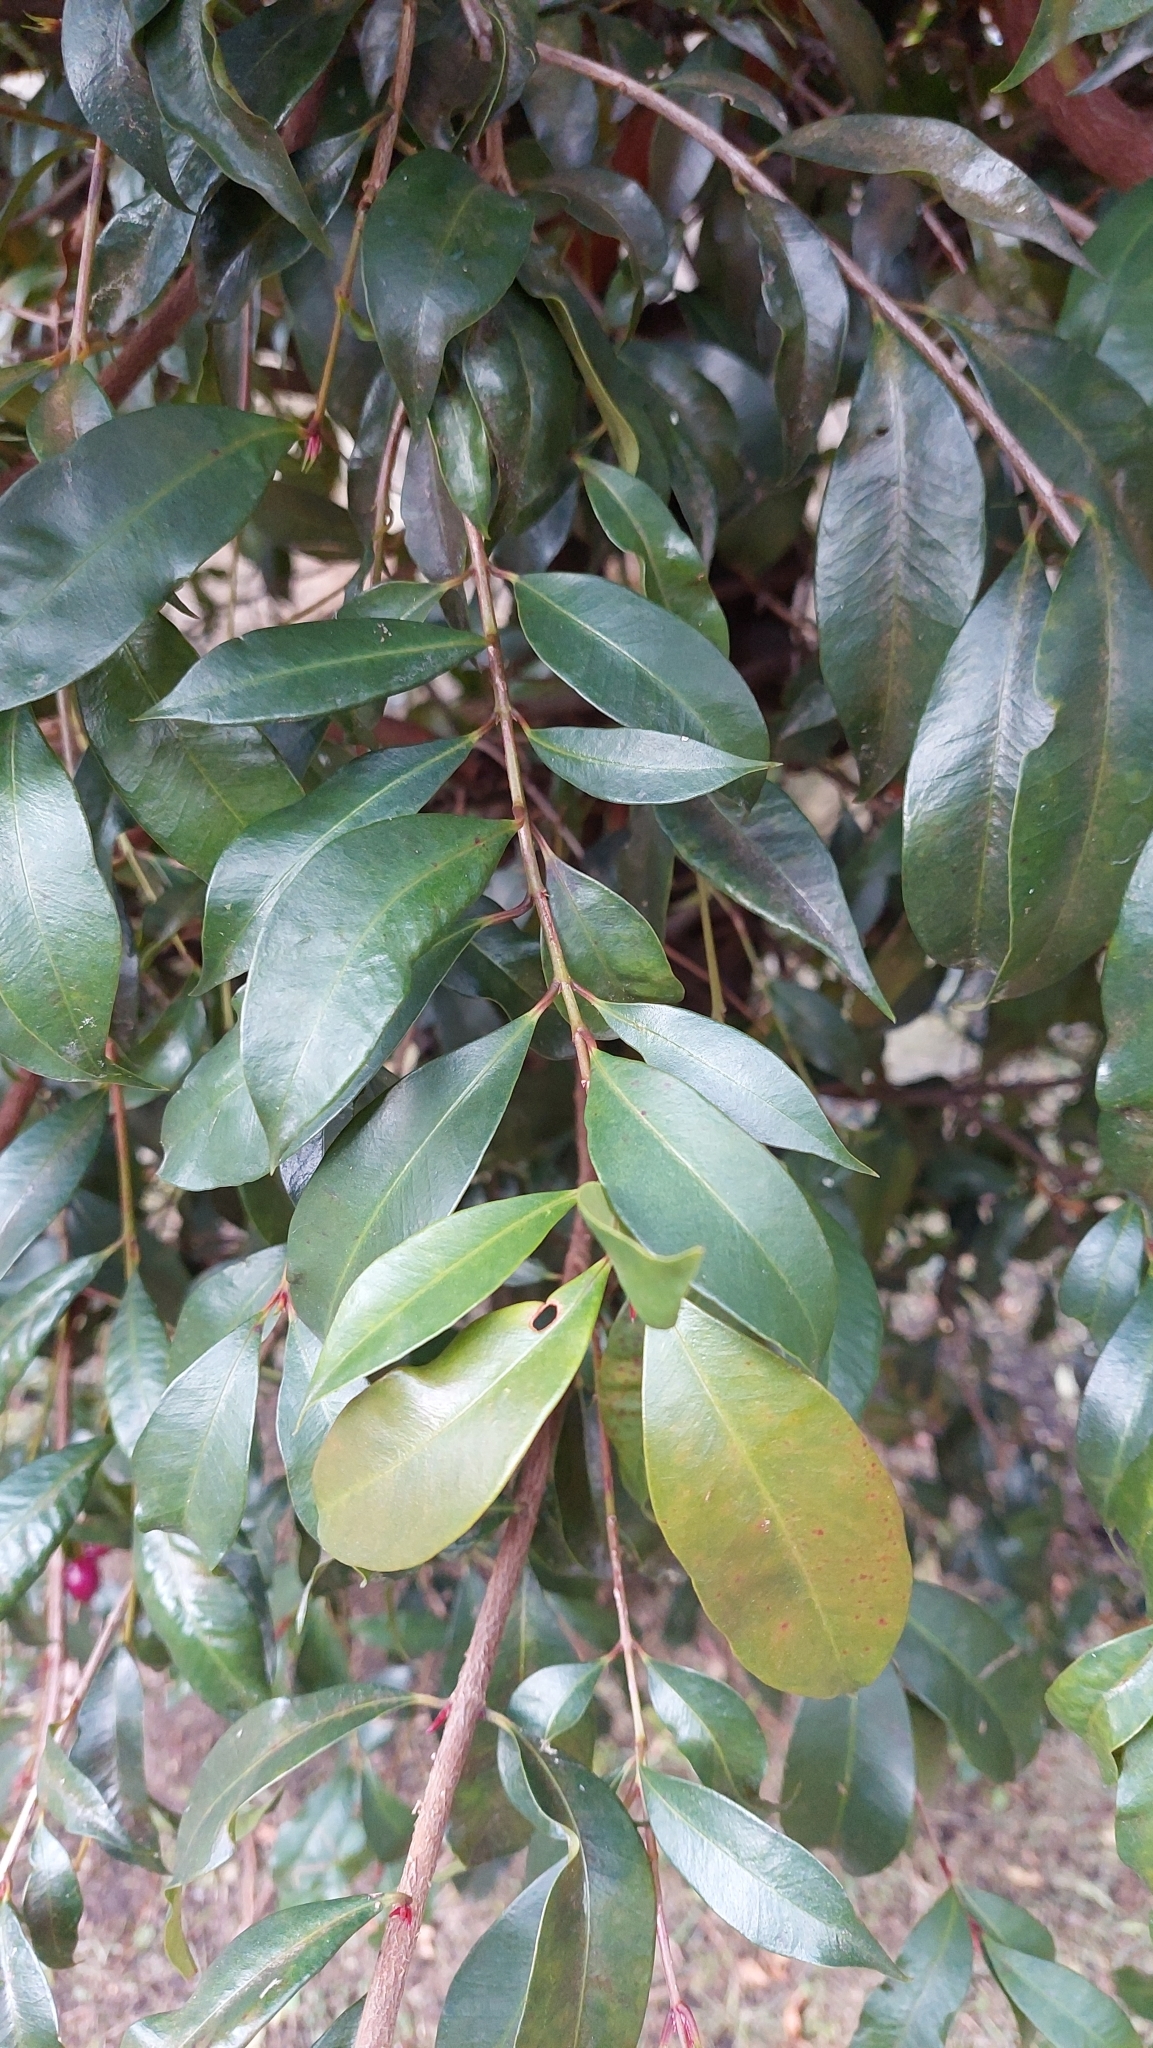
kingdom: Plantae
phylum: Tracheophyta
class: Magnoliopsida
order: Myrtales
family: Myrtaceae
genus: Syzygium
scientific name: Syzygium paniculatum
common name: Magenta lilly-pilly
